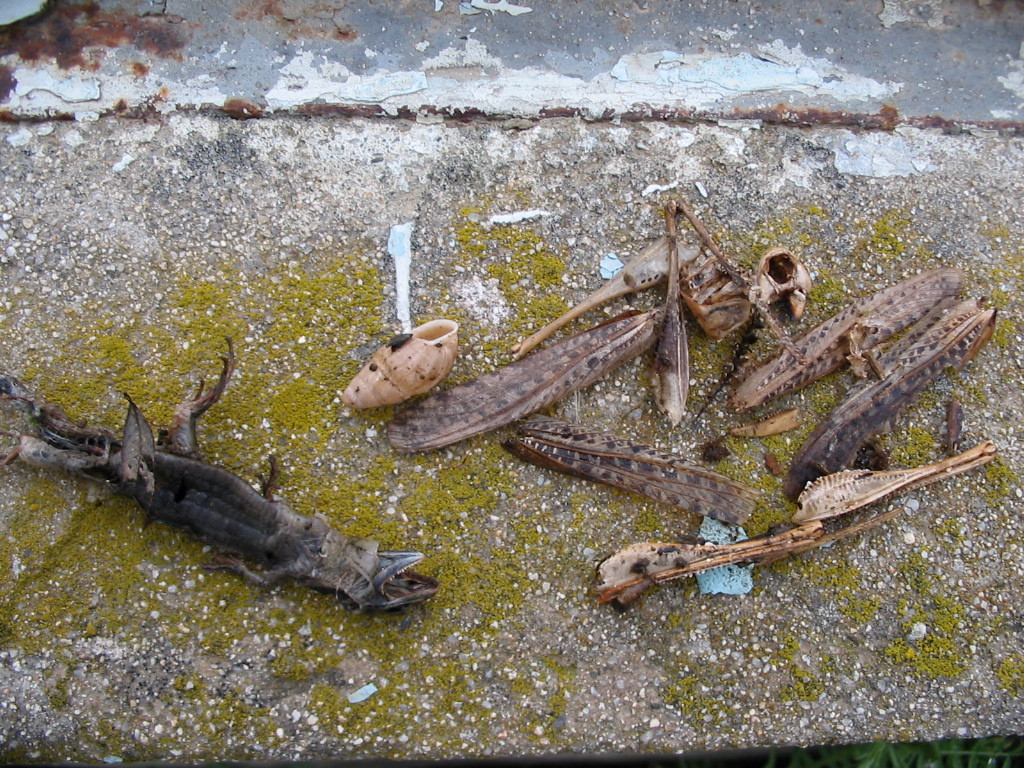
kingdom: Animalia
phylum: Arthropoda
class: Insecta
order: Orthoptera
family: Tettigoniidae
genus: Decticus
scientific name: Decticus albifrons
